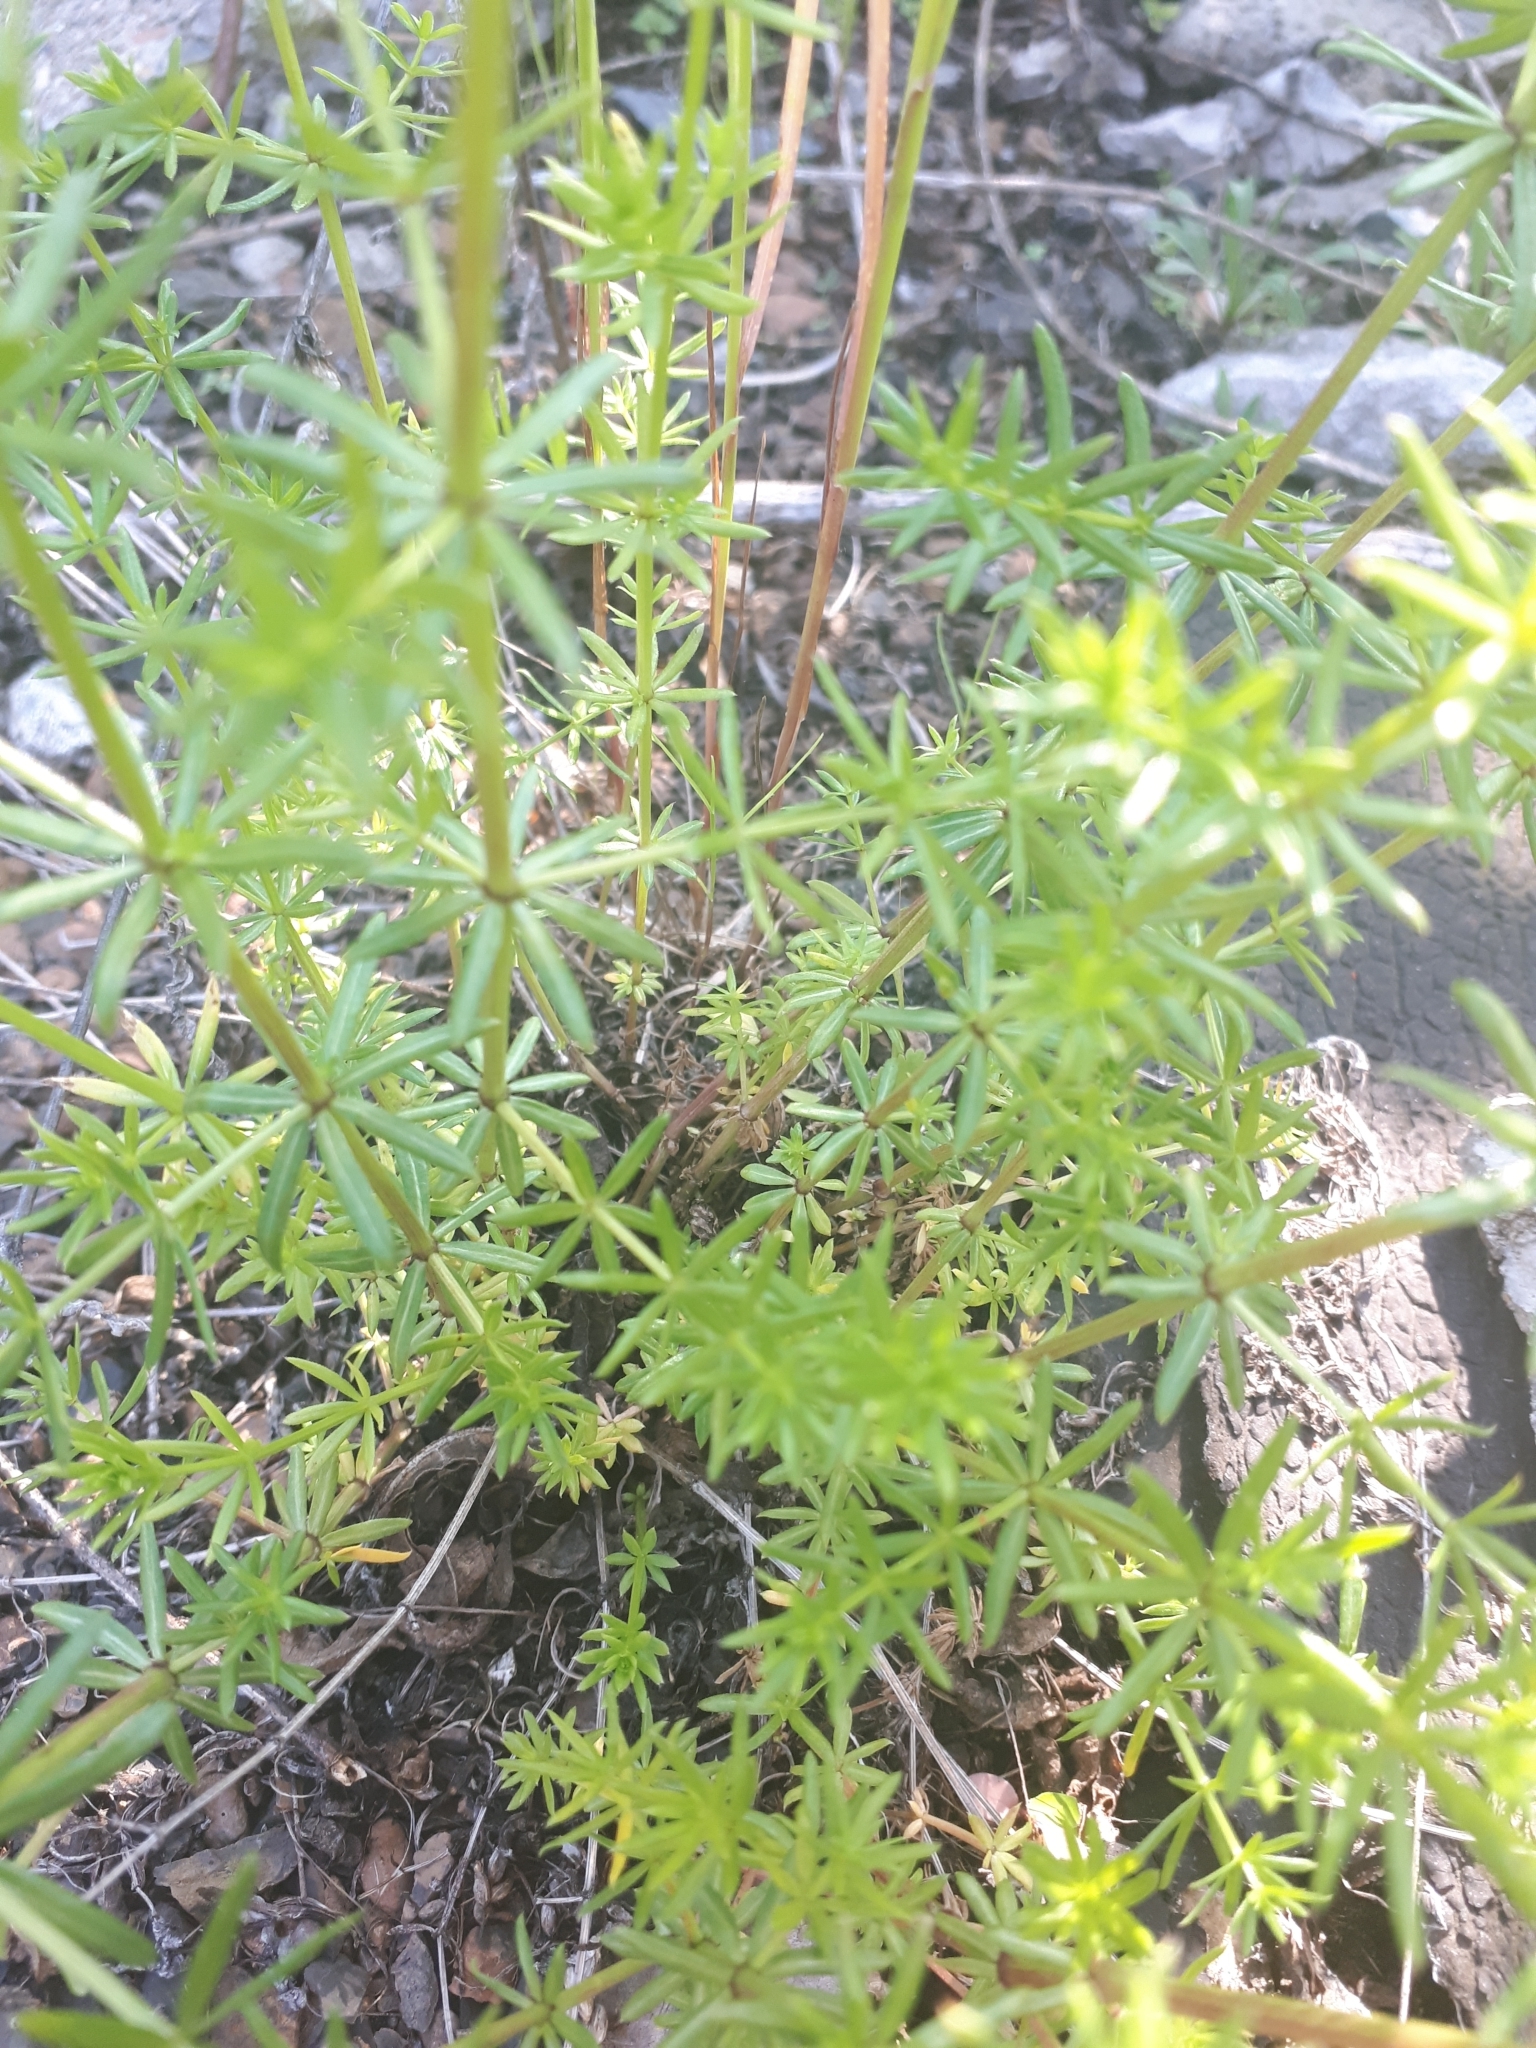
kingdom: Plantae
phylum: Tracheophyta
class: Magnoliopsida
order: Gentianales
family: Rubiaceae
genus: Galium
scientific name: Galium mollugo
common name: Hedge bedstraw
